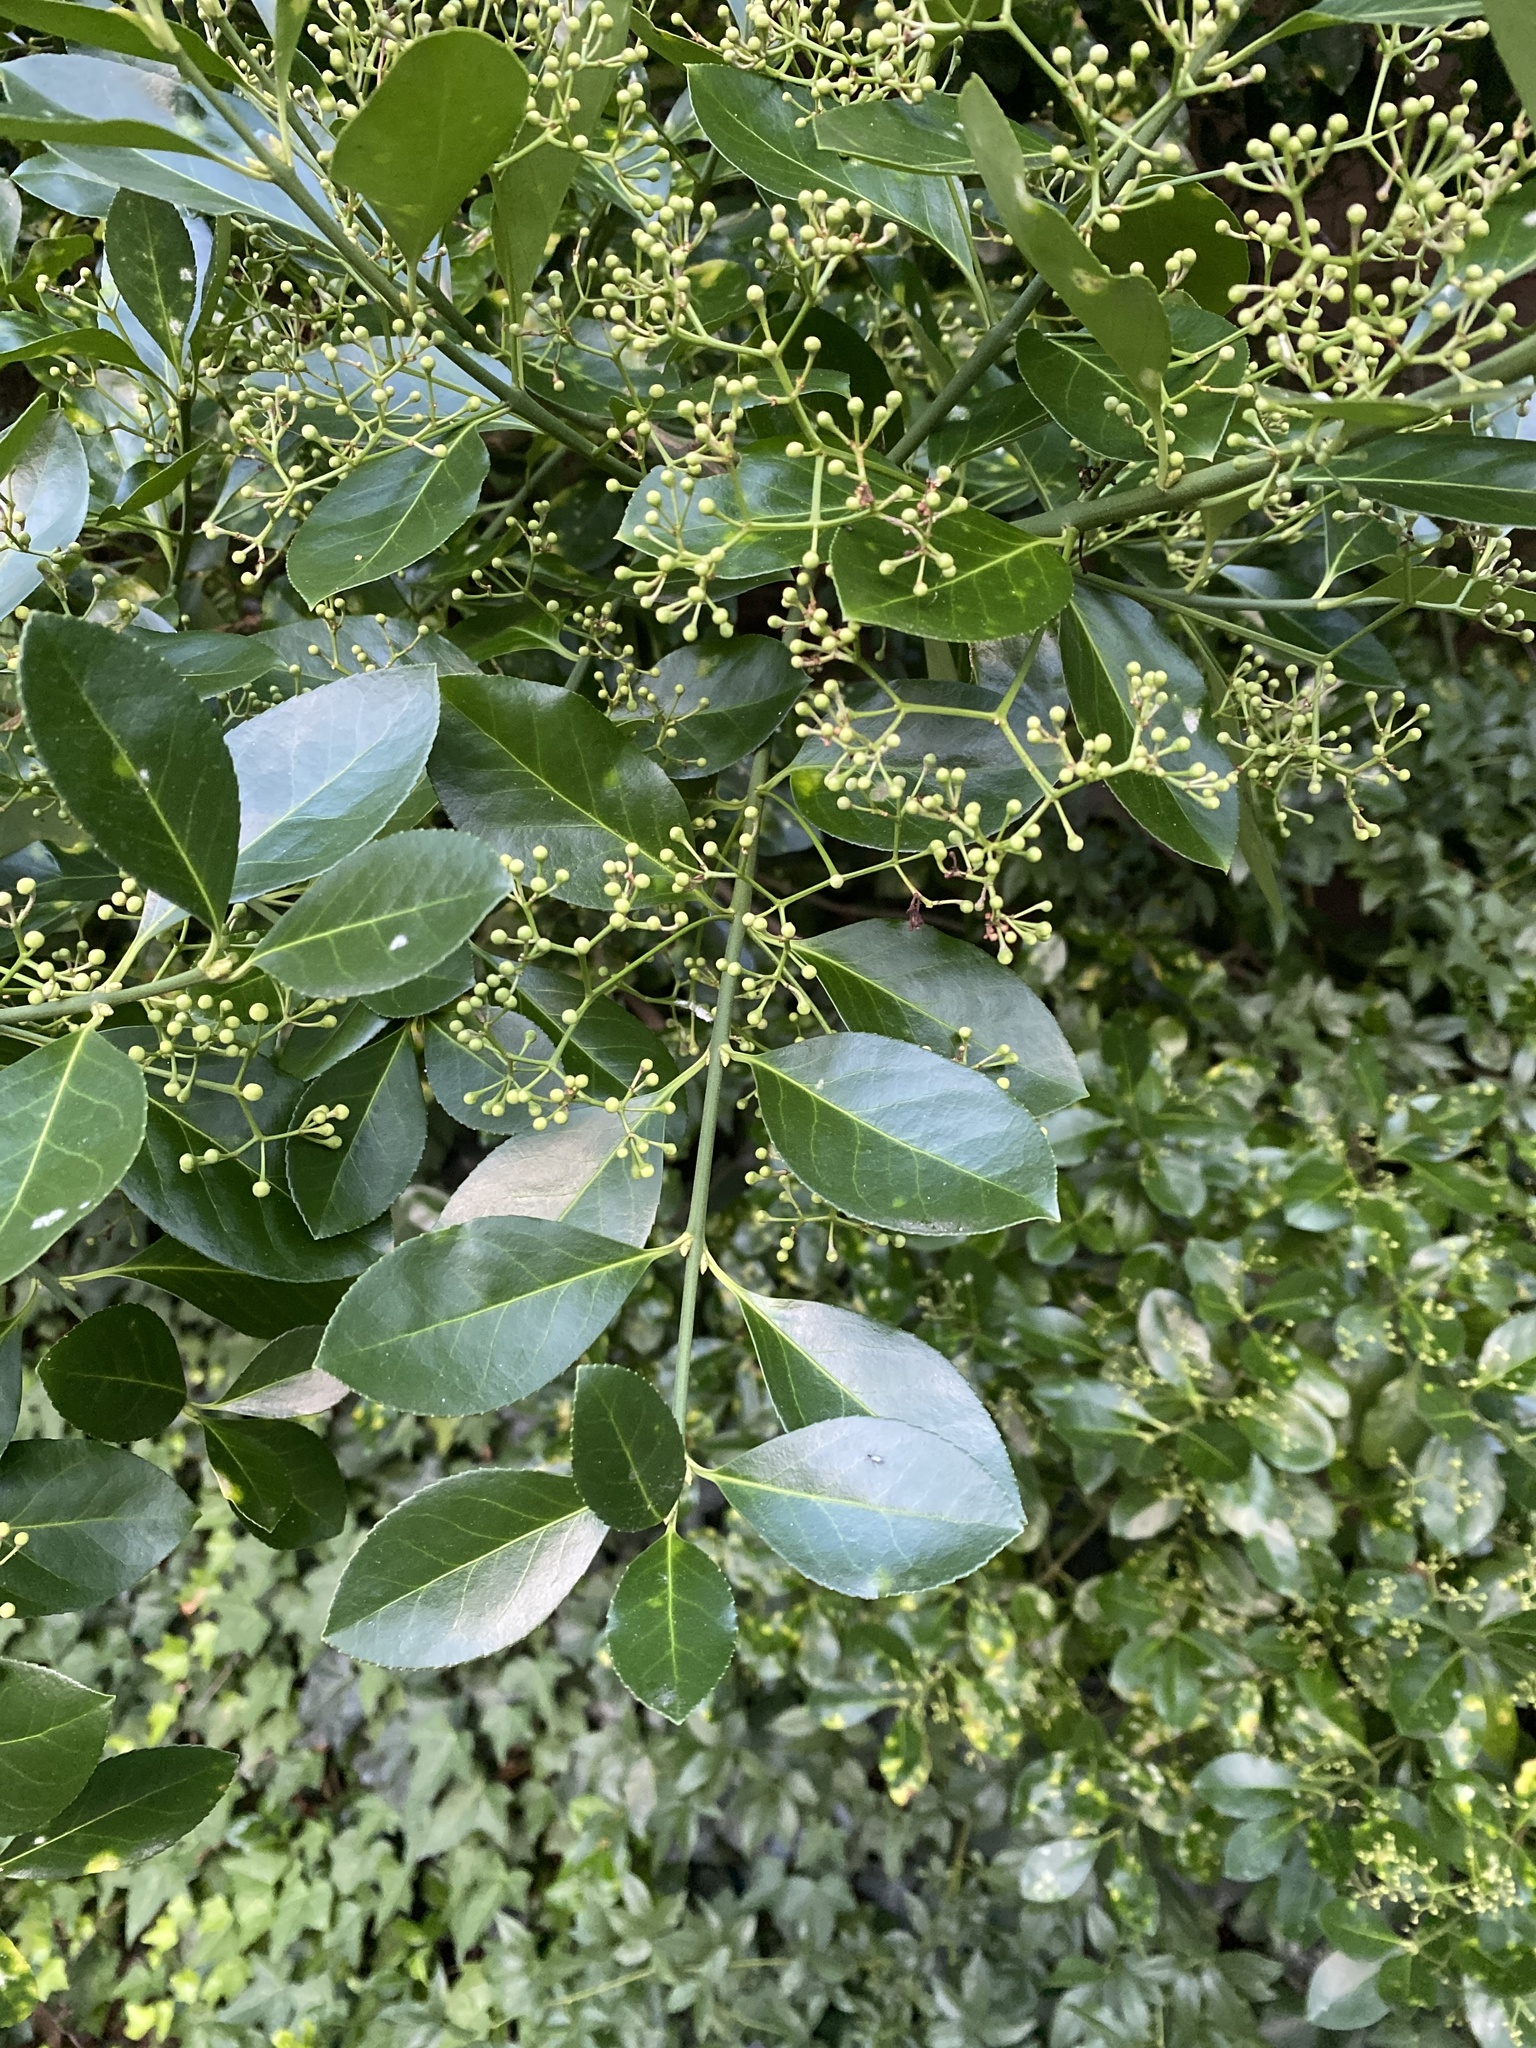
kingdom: Plantae
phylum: Tracheophyta
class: Magnoliopsida
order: Celastrales
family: Celastraceae
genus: Euonymus
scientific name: Euonymus japonicus
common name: Japanese spindletree
